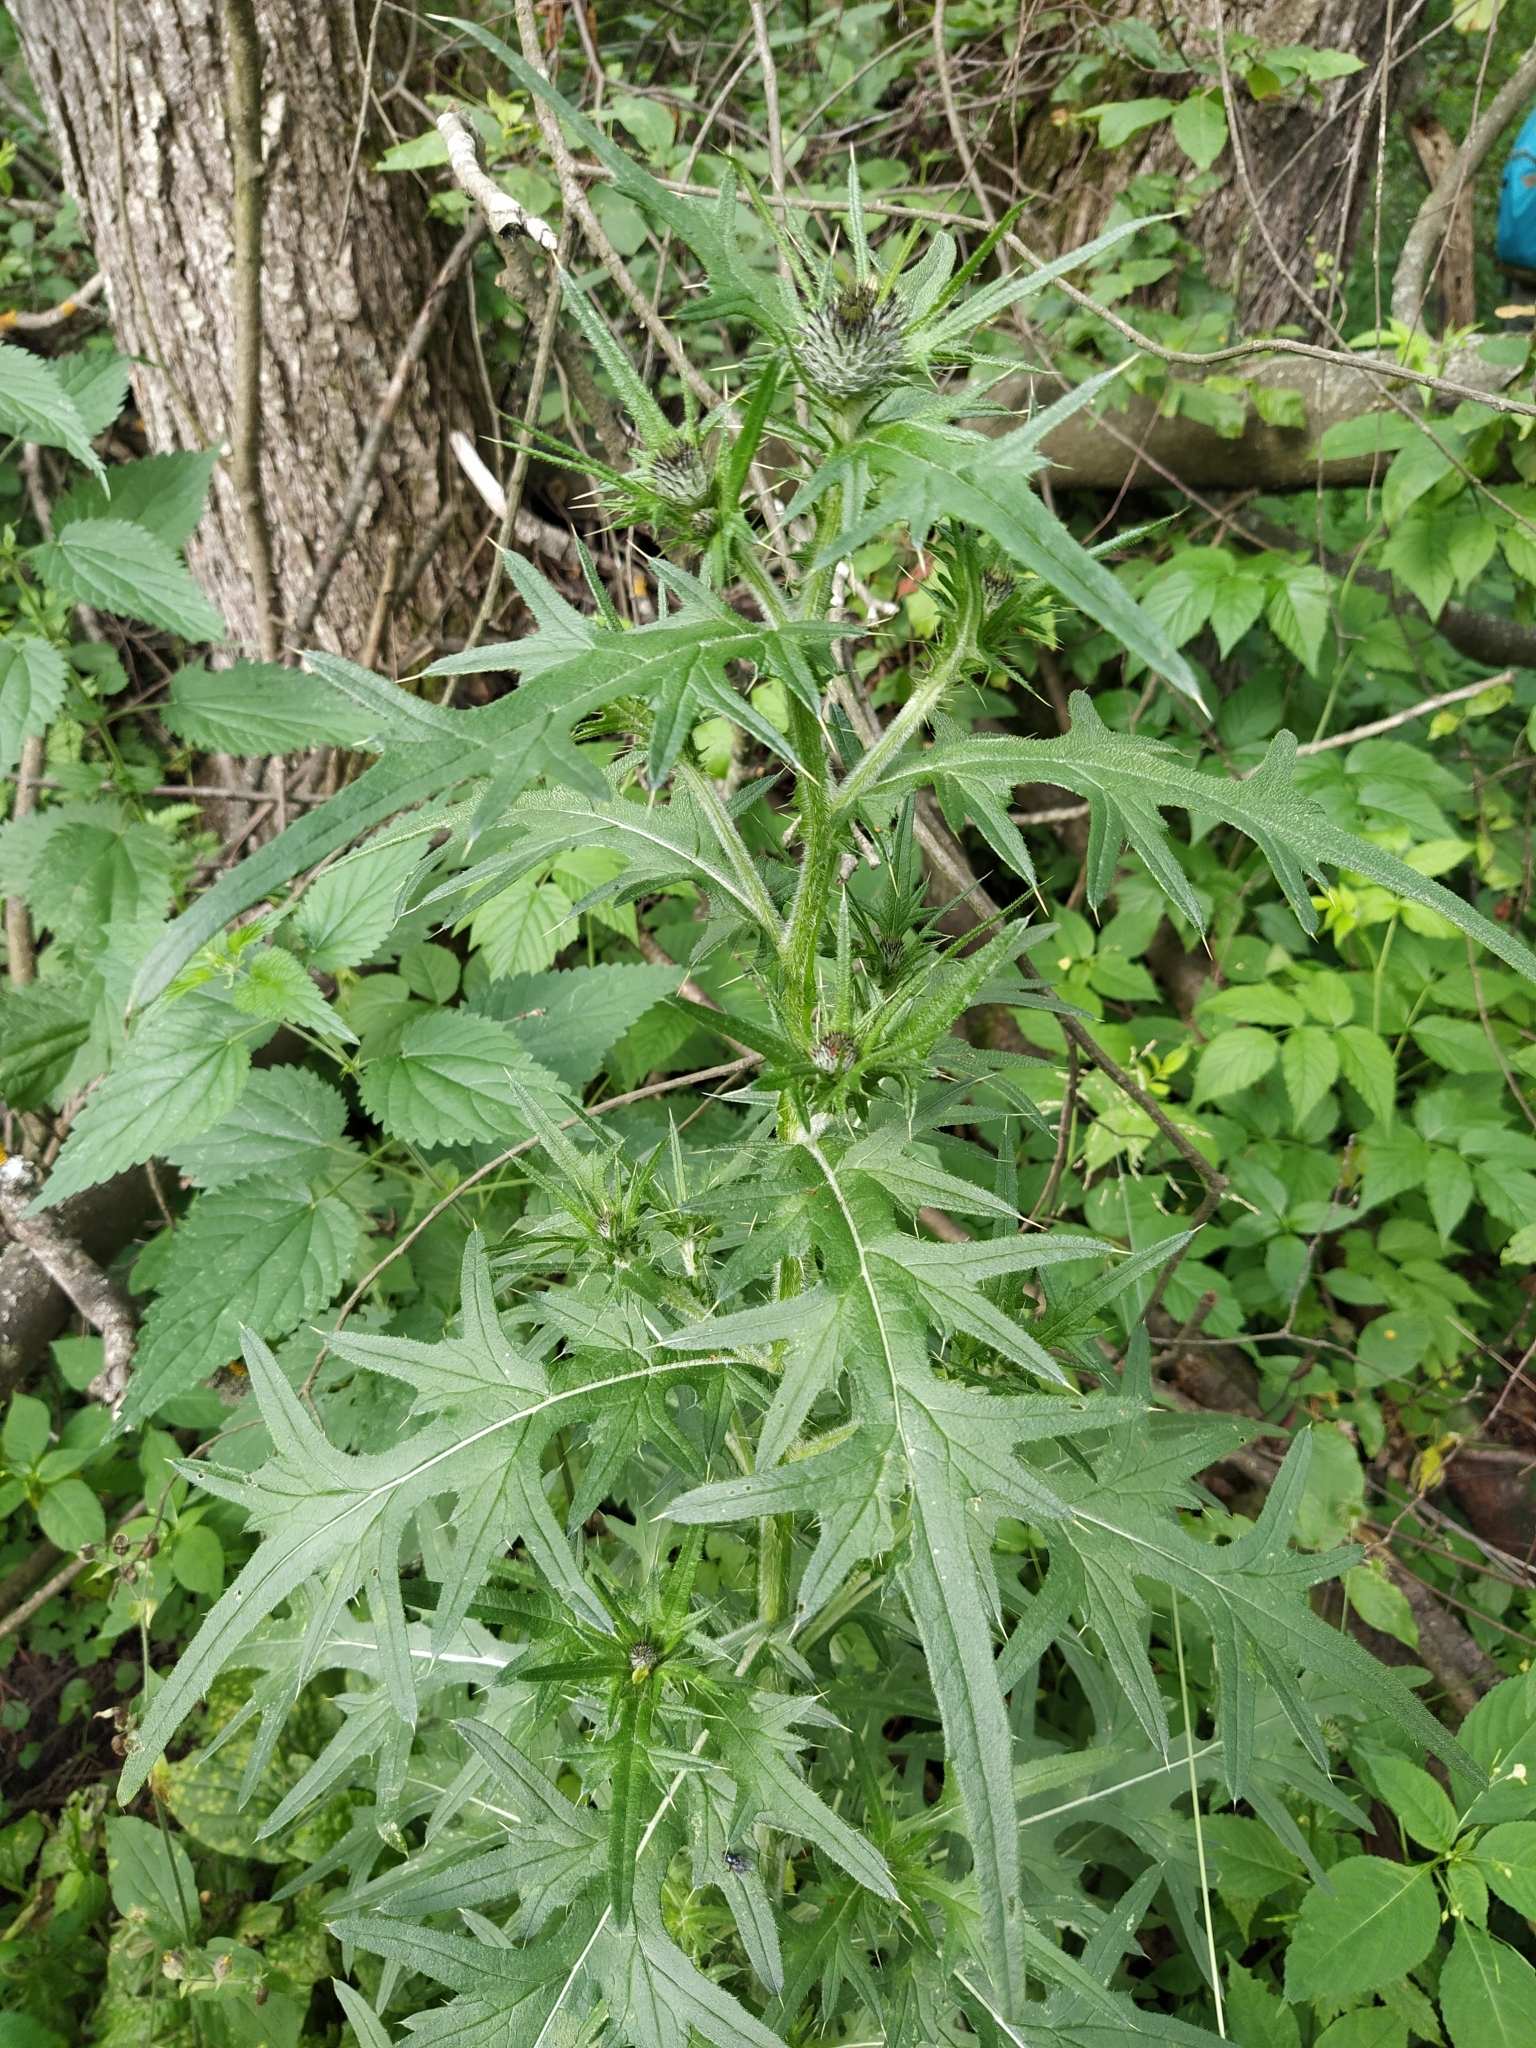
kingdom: Plantae
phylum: Tracheophyta
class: Magnoliopsida
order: Asterales
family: Asteraceae
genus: Cirsium
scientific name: Cirsium vulgare
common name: Bull thistle
